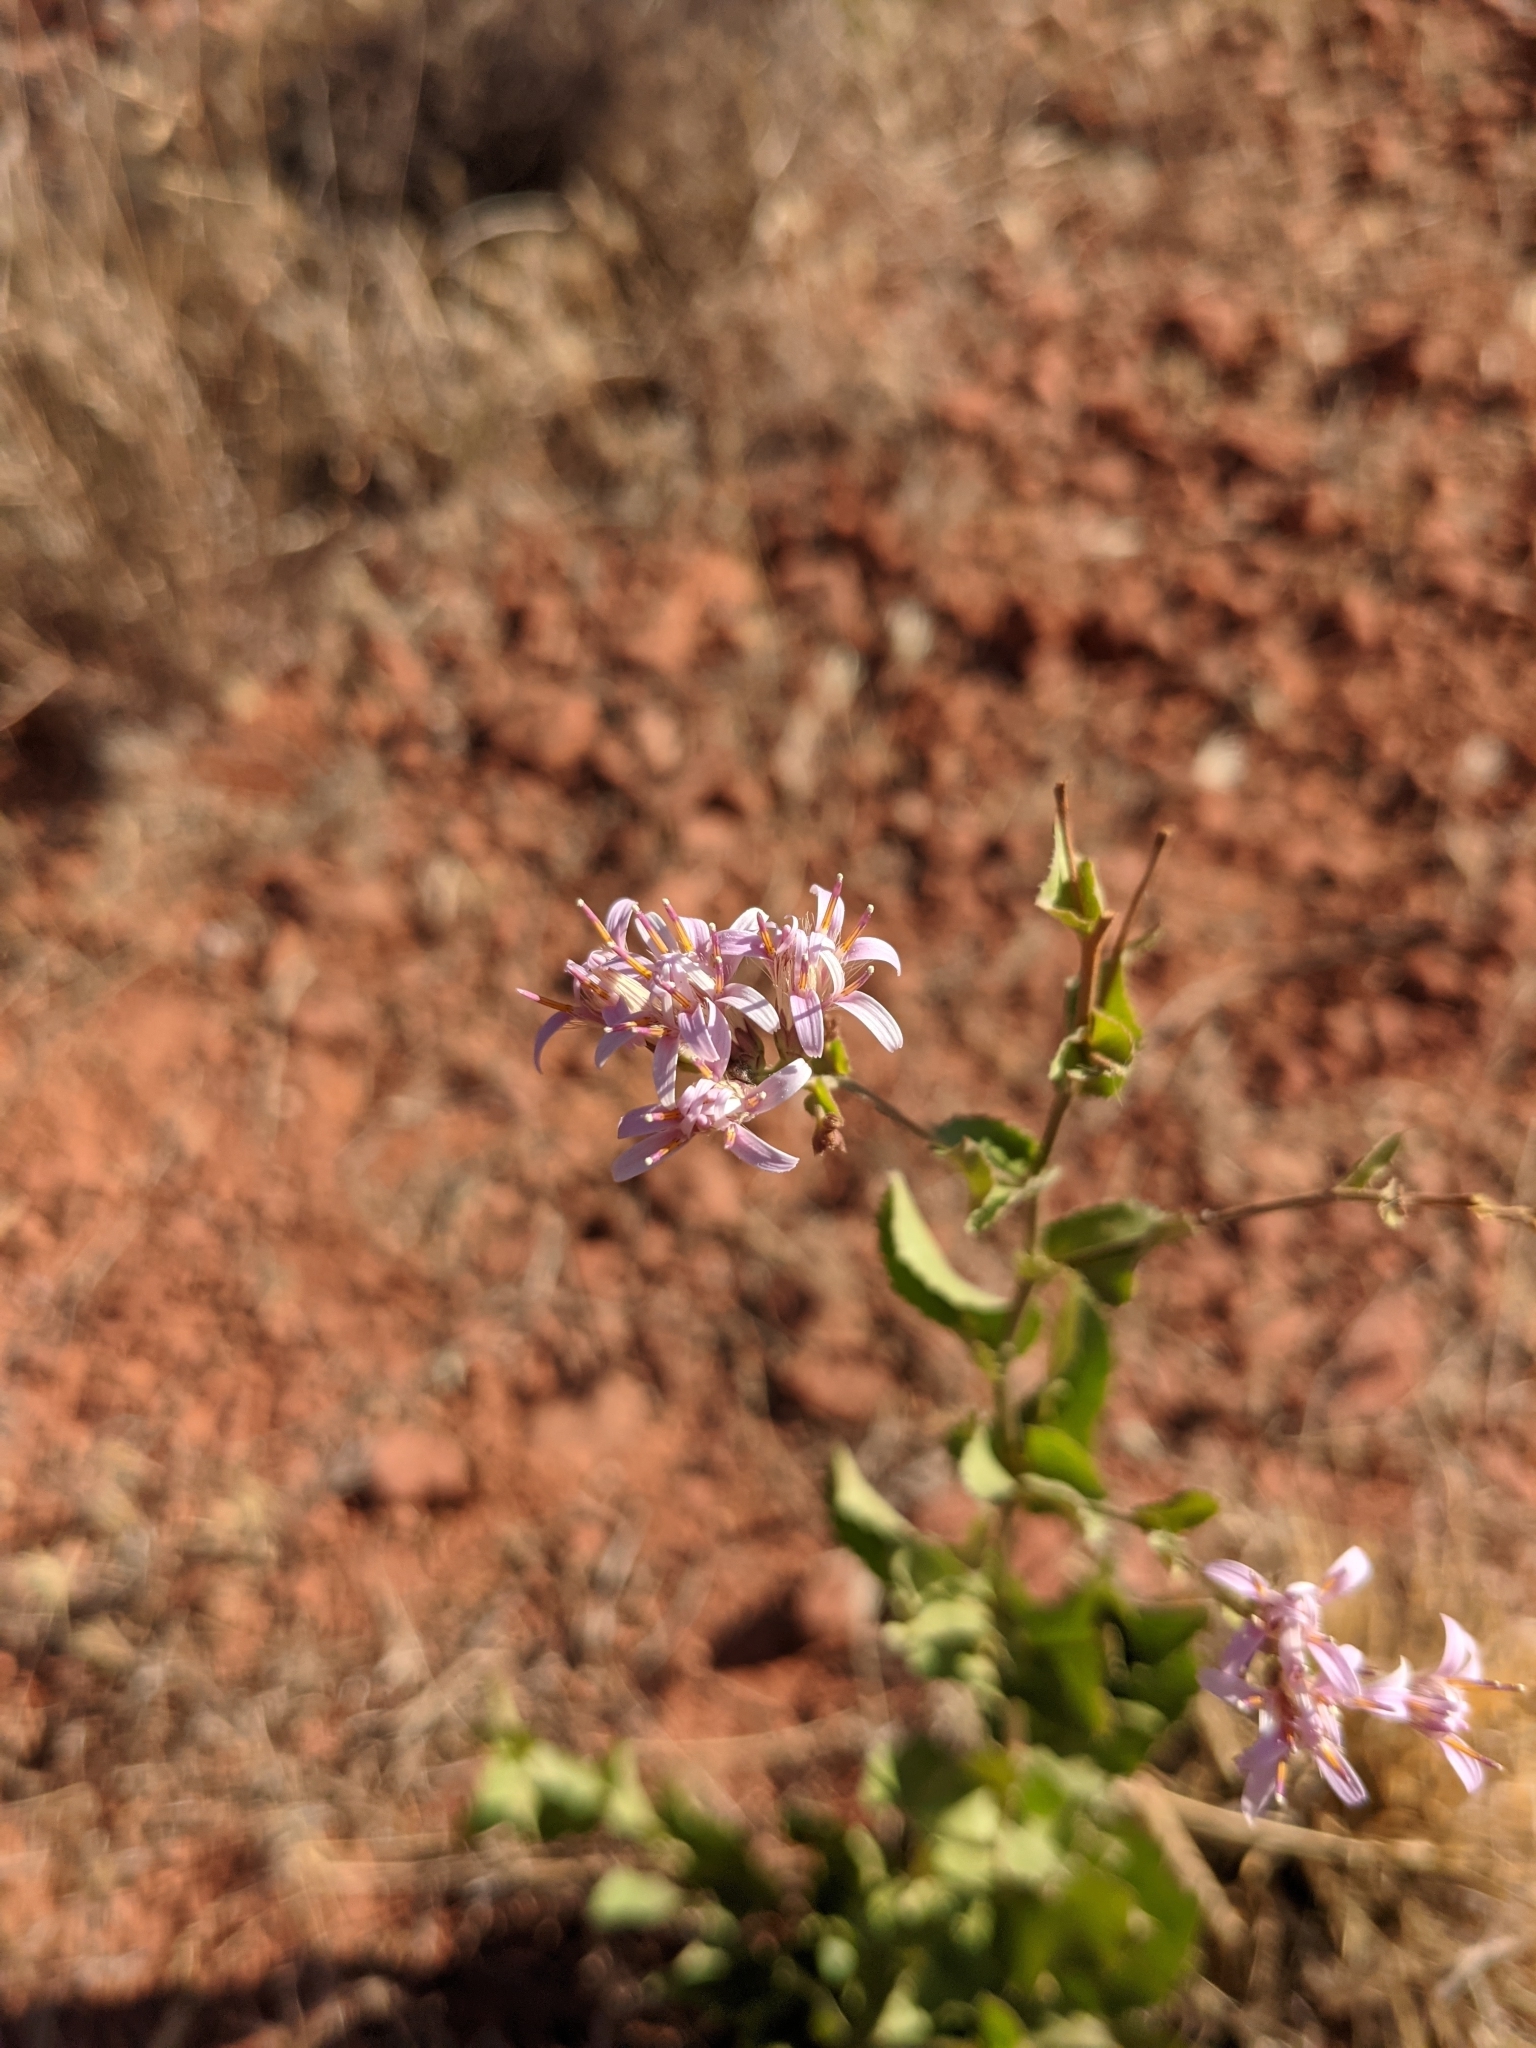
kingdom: Plantae
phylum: Tracheophyta
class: Magnoliopsida
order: Asterales
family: Asteraceae
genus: Acourtia
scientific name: Acourtia wrightii
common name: Brownfoot
